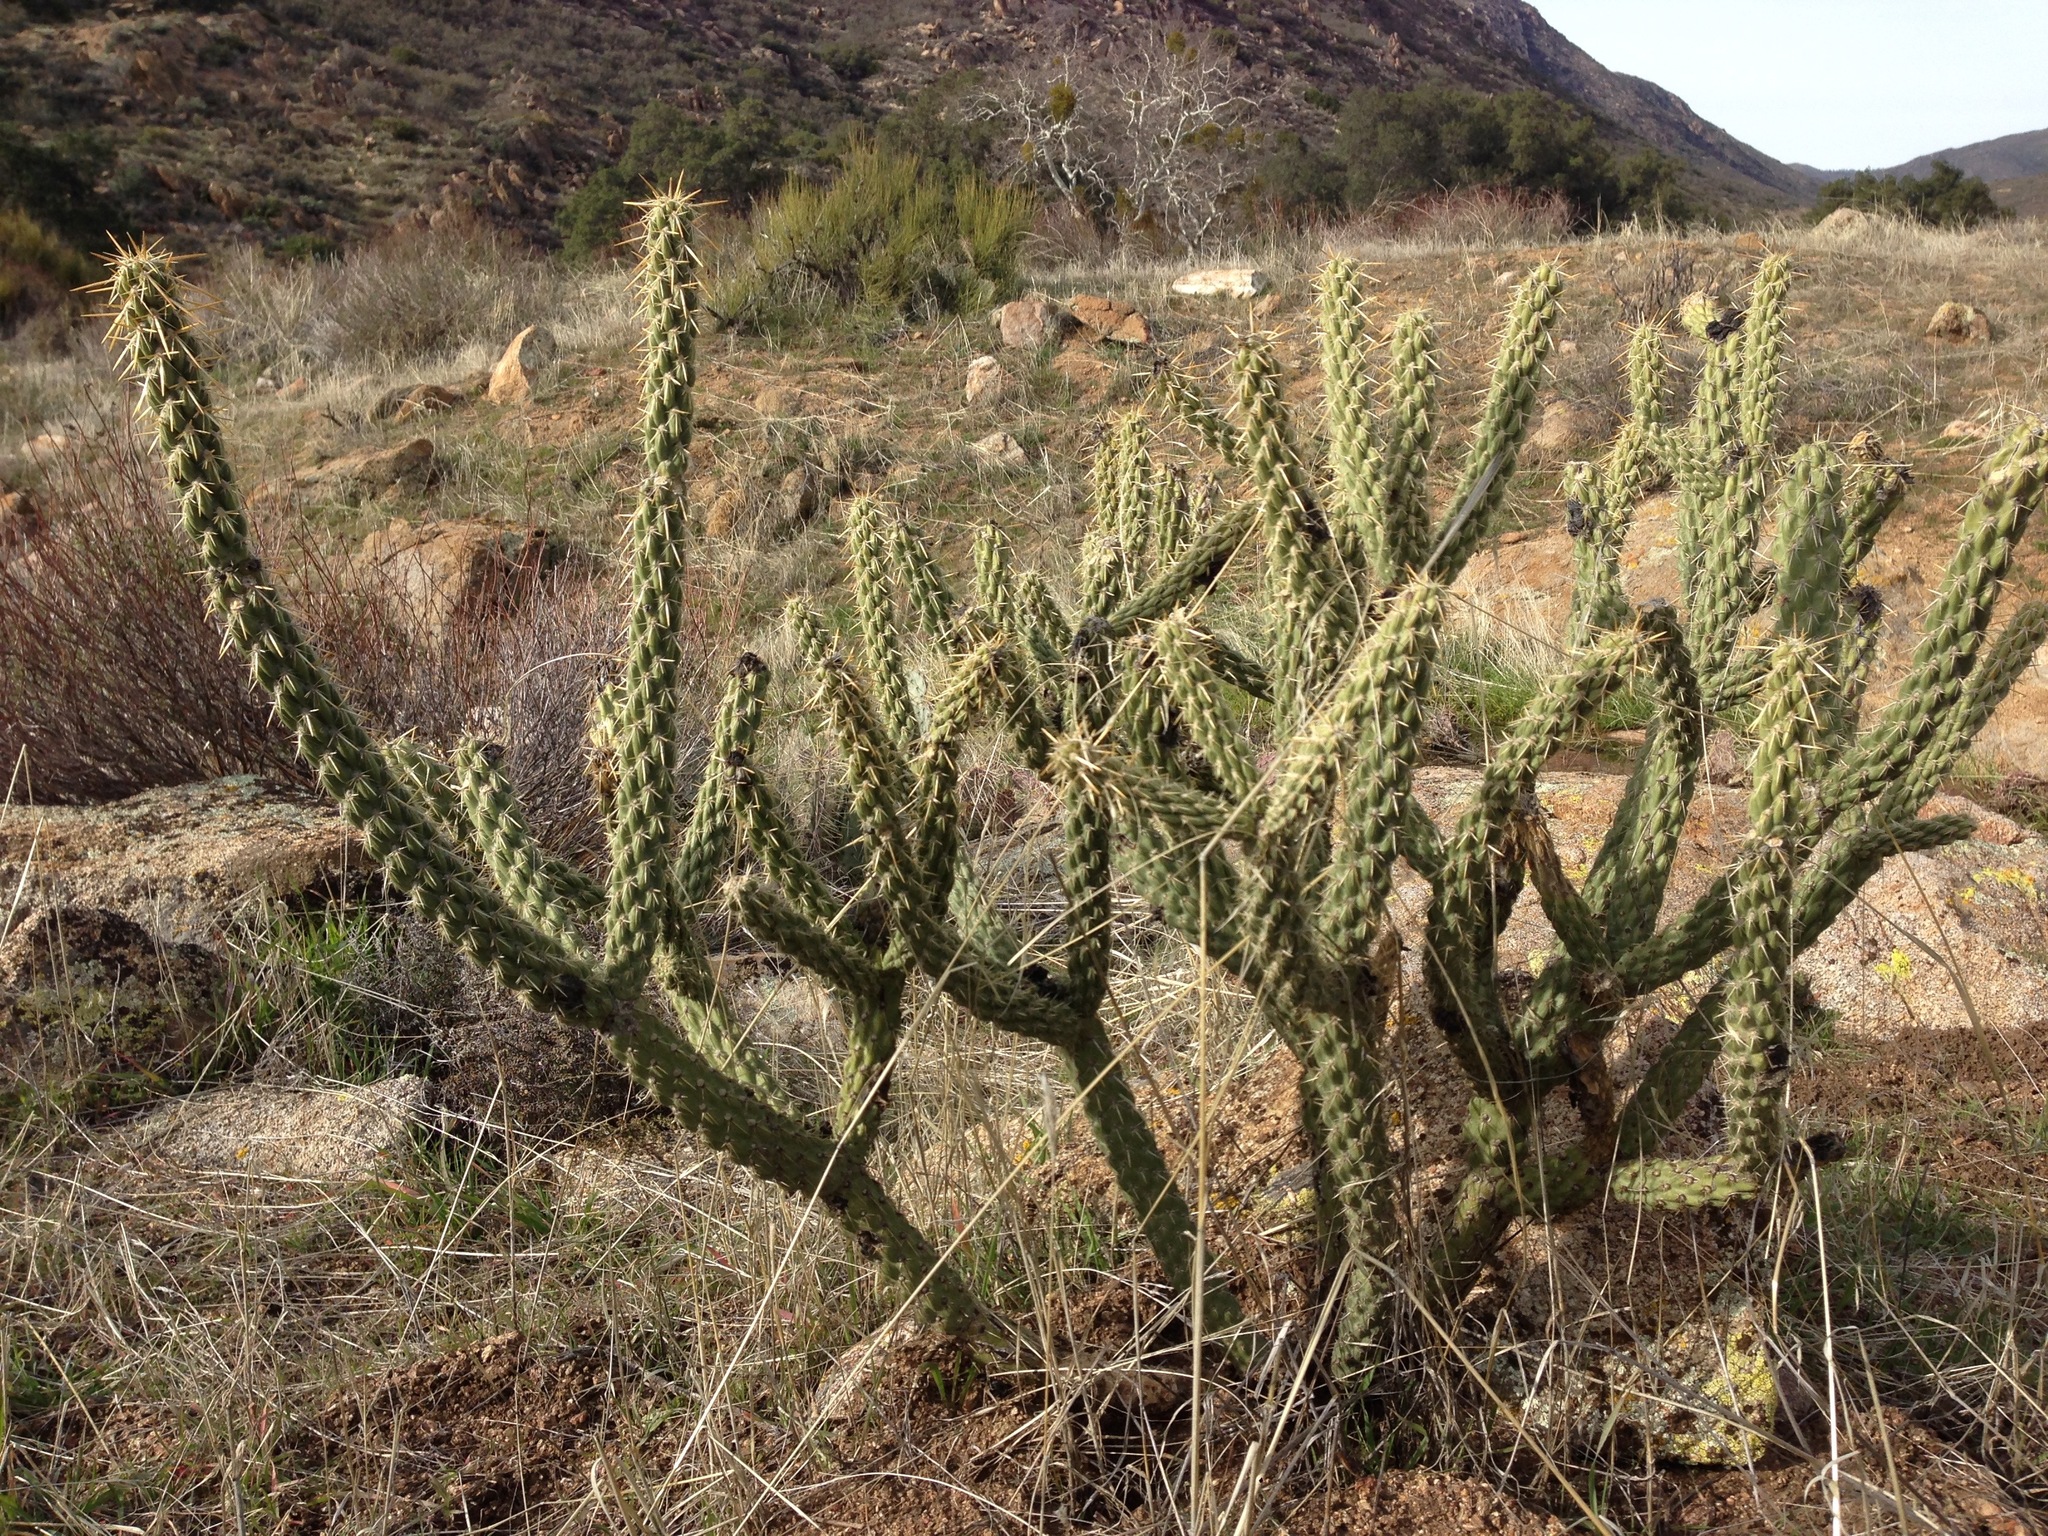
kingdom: Plantae
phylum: Tracheophyta
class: Magnoliopsida
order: Caryophyllales
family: Cactaceae
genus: Cylindropuntia
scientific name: Cylindropuntia bernardina
